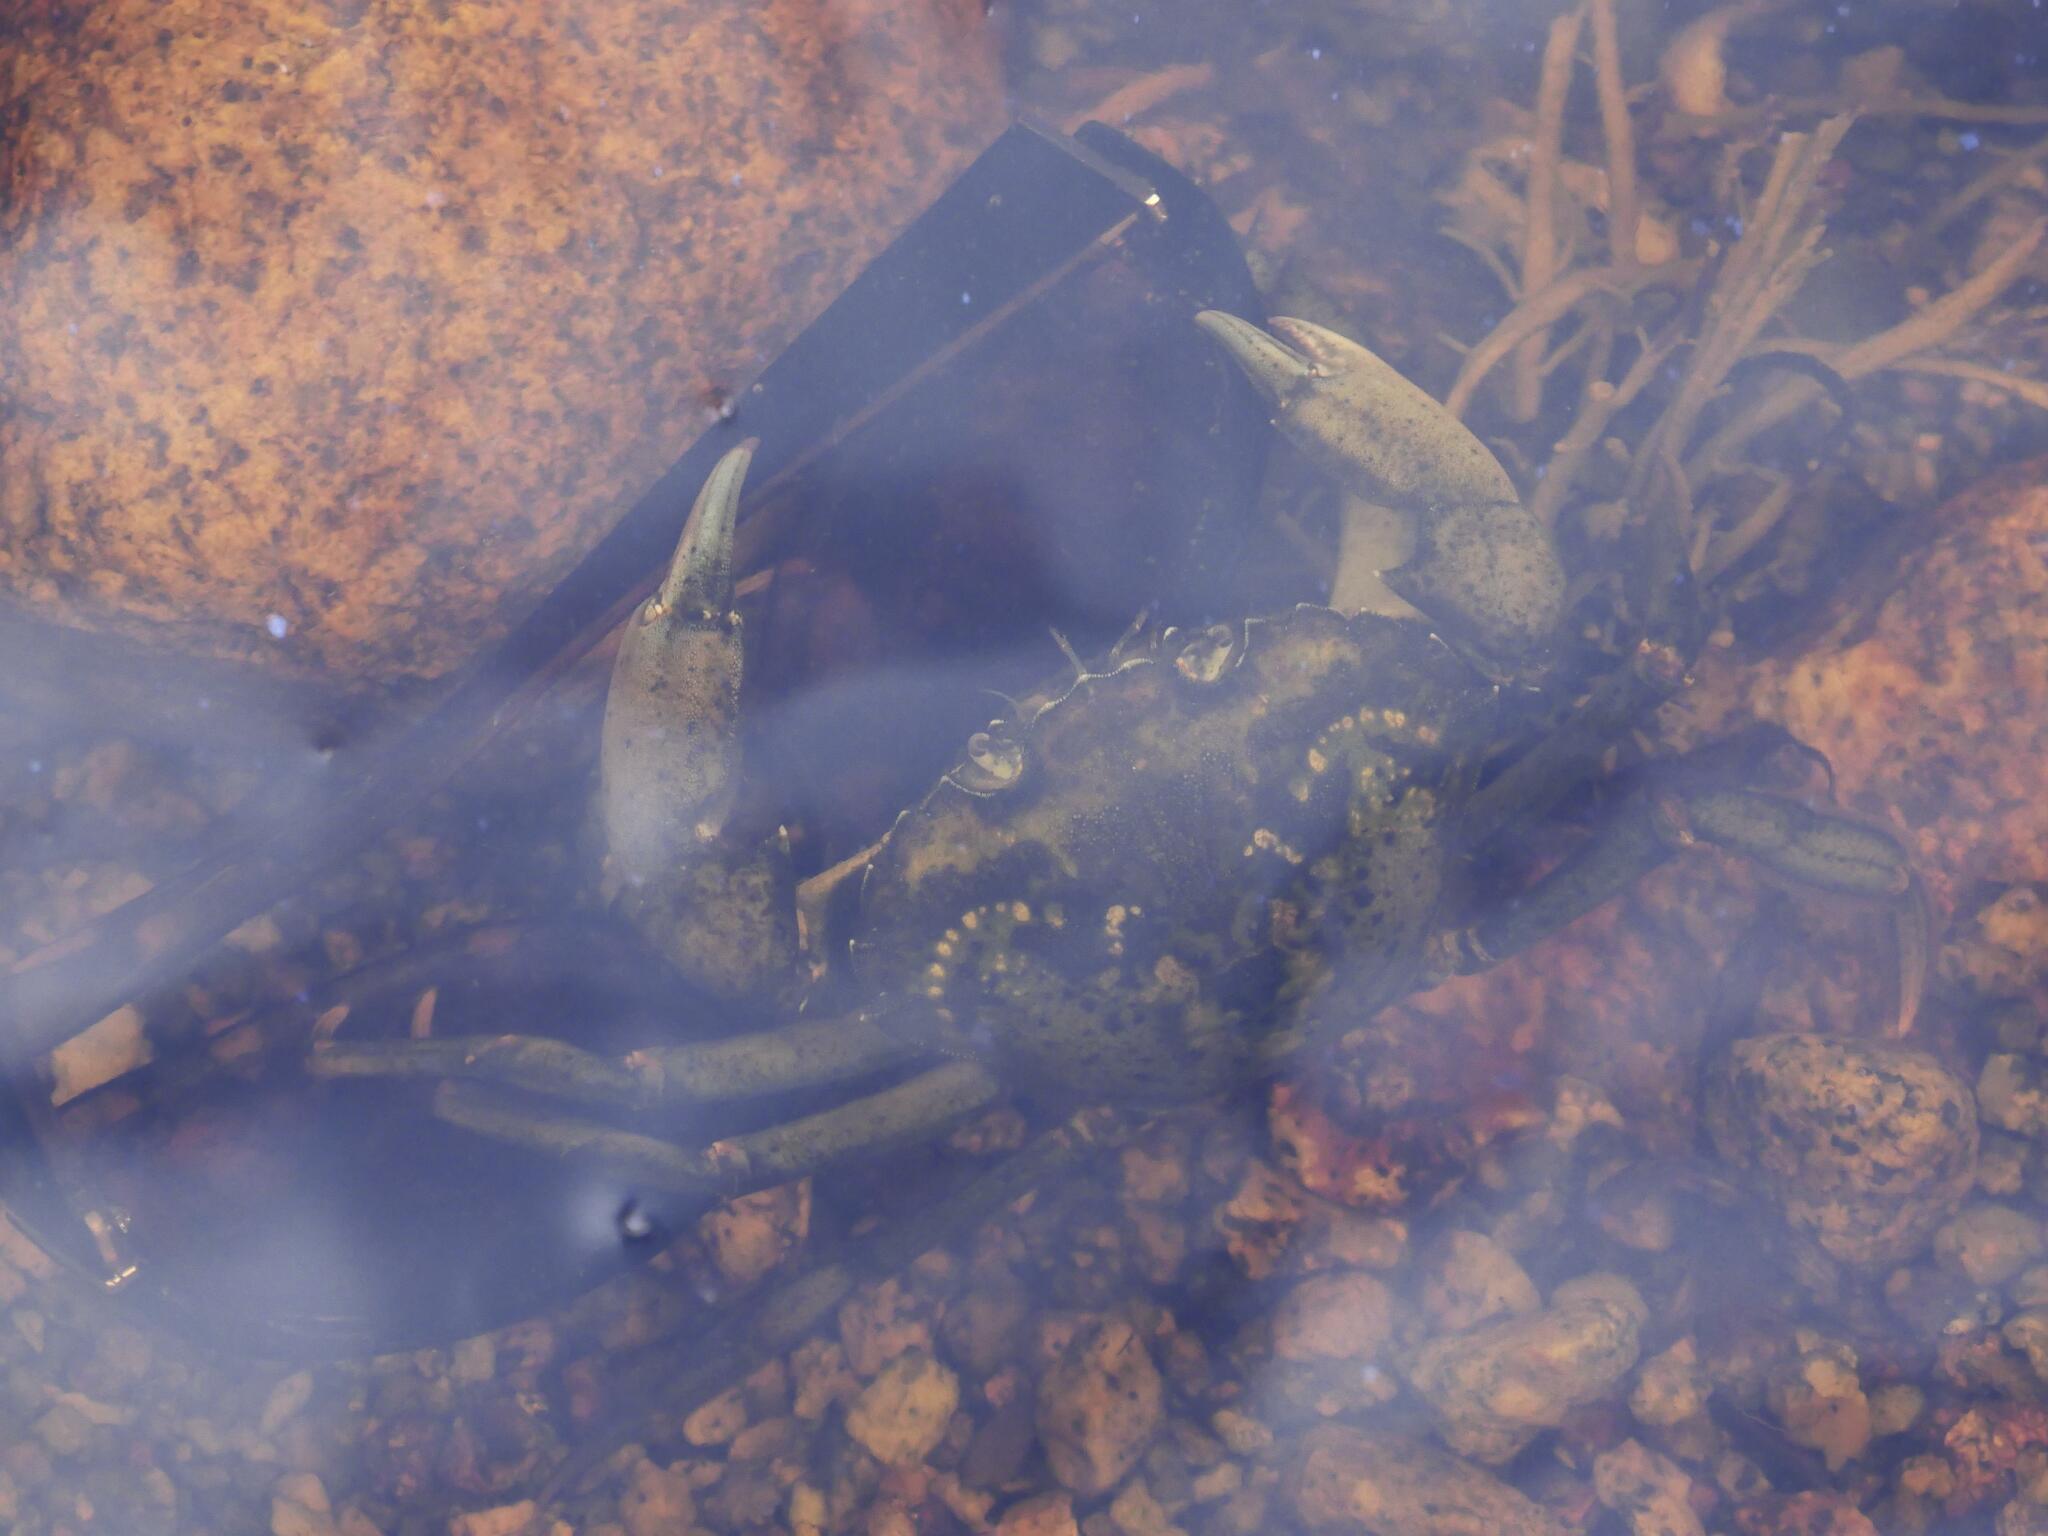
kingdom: Animalia
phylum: Arthropoda
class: Malacostraca
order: Decapoda
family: Carcinidae
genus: Carcinus
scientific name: Carcinus maenas
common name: European green crab
